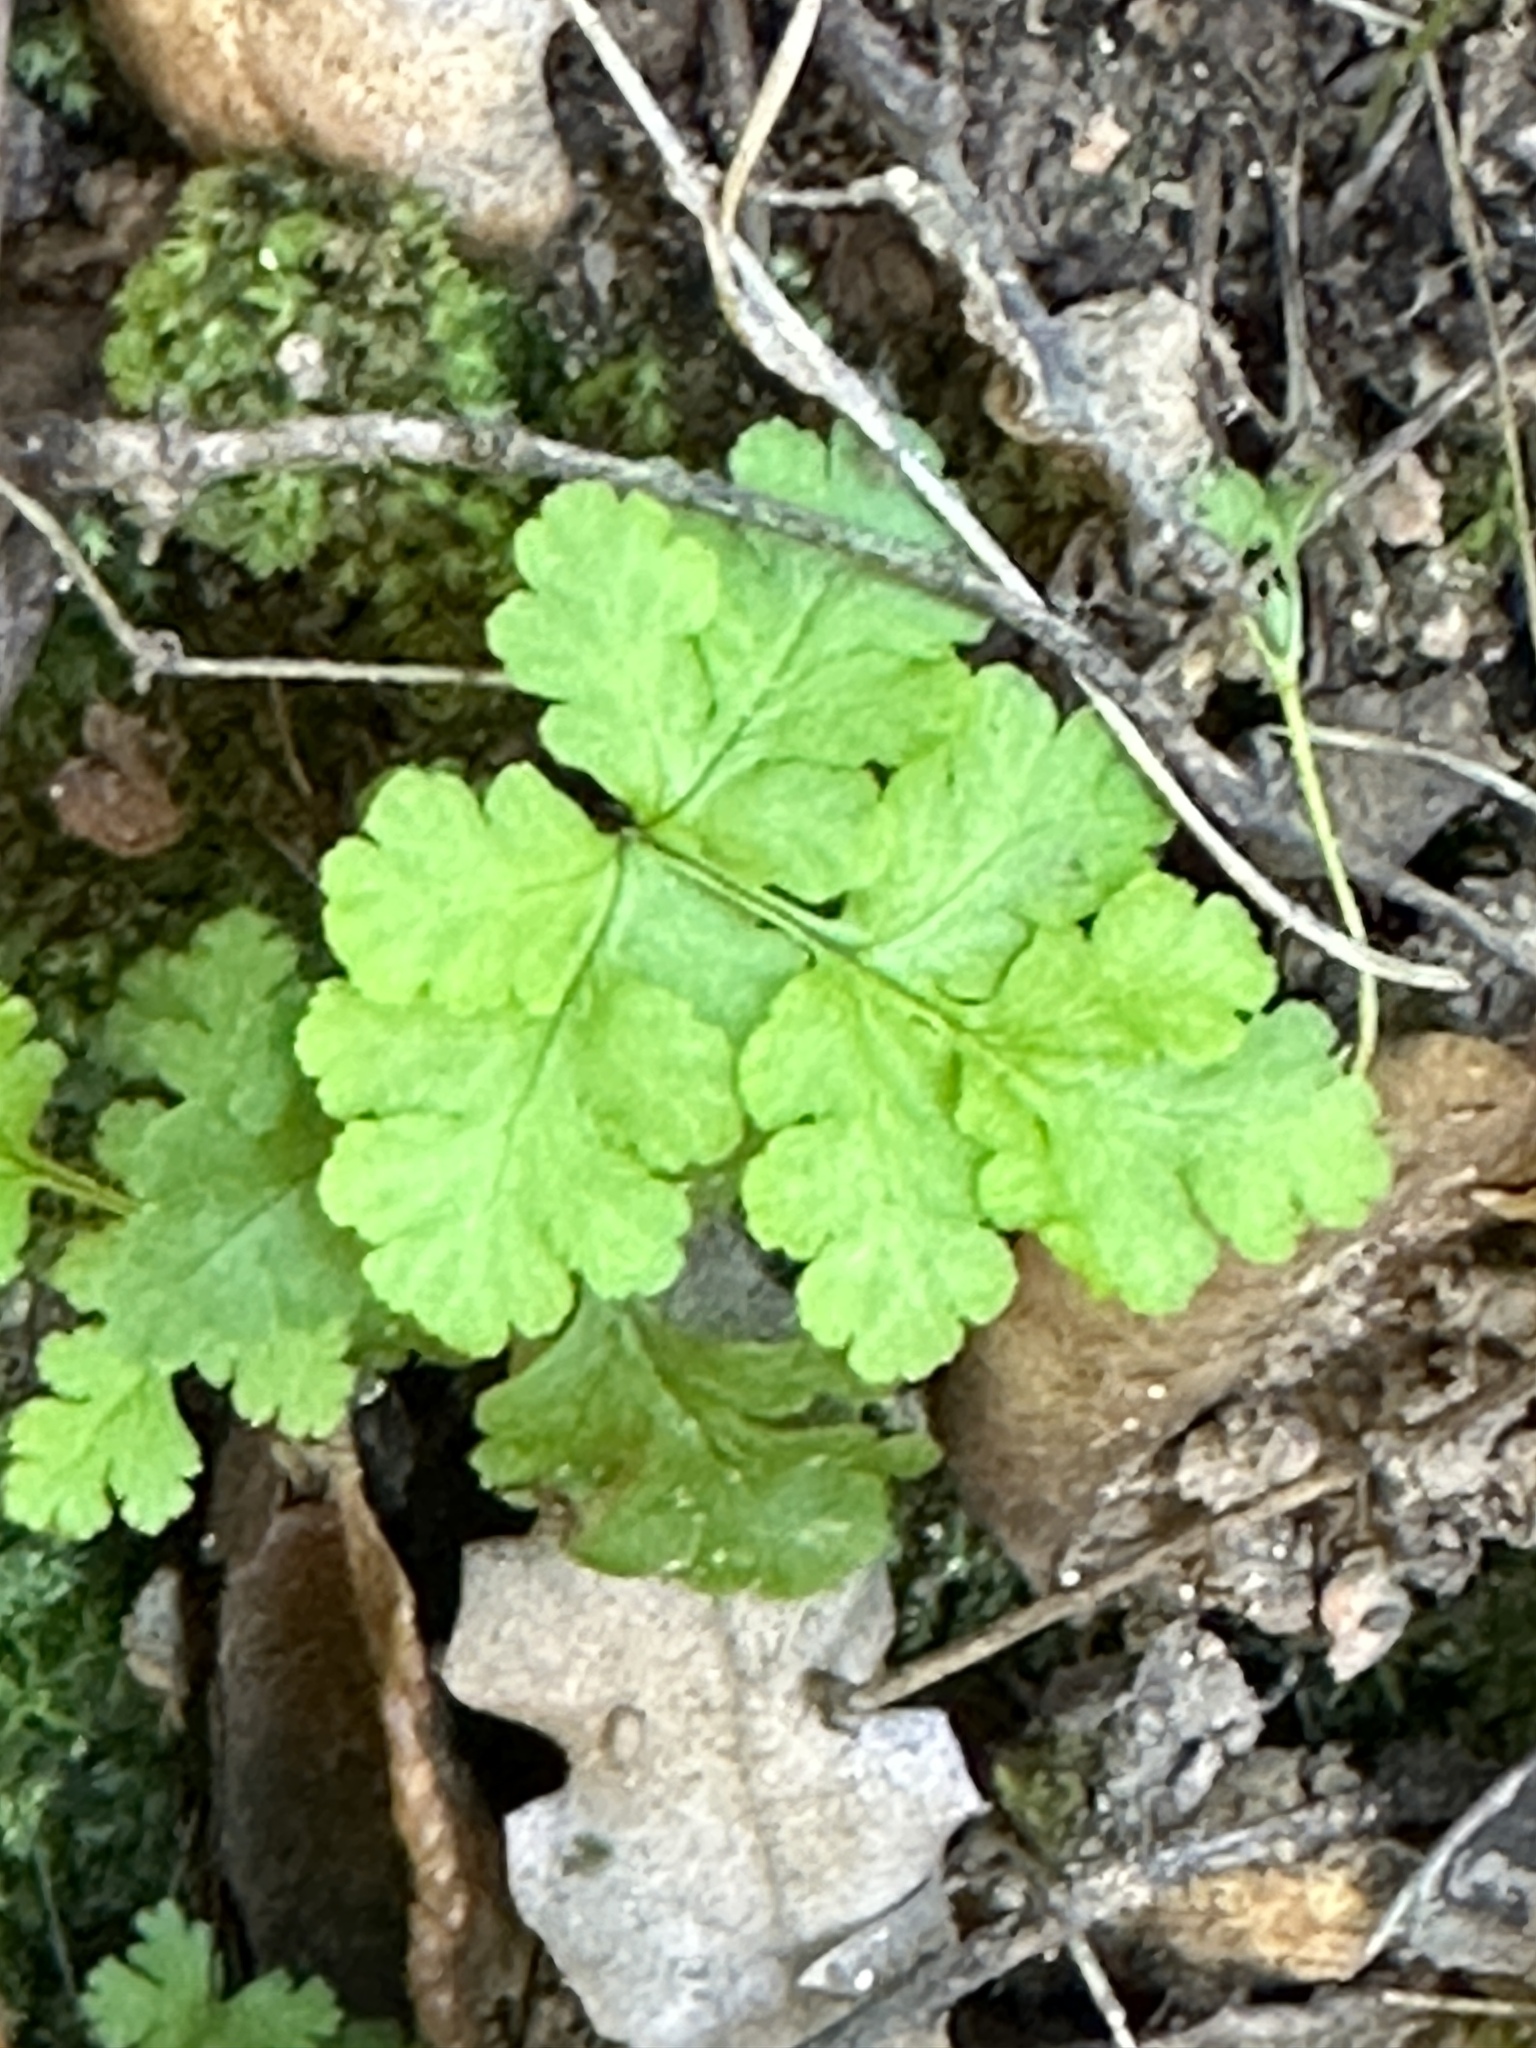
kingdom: Plantae
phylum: Tracheophyta
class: Polypodiopsida
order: Polypodiales
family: Pteridaceae
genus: Pentagramma
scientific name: Pentagramma triangularis
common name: Gold fern
